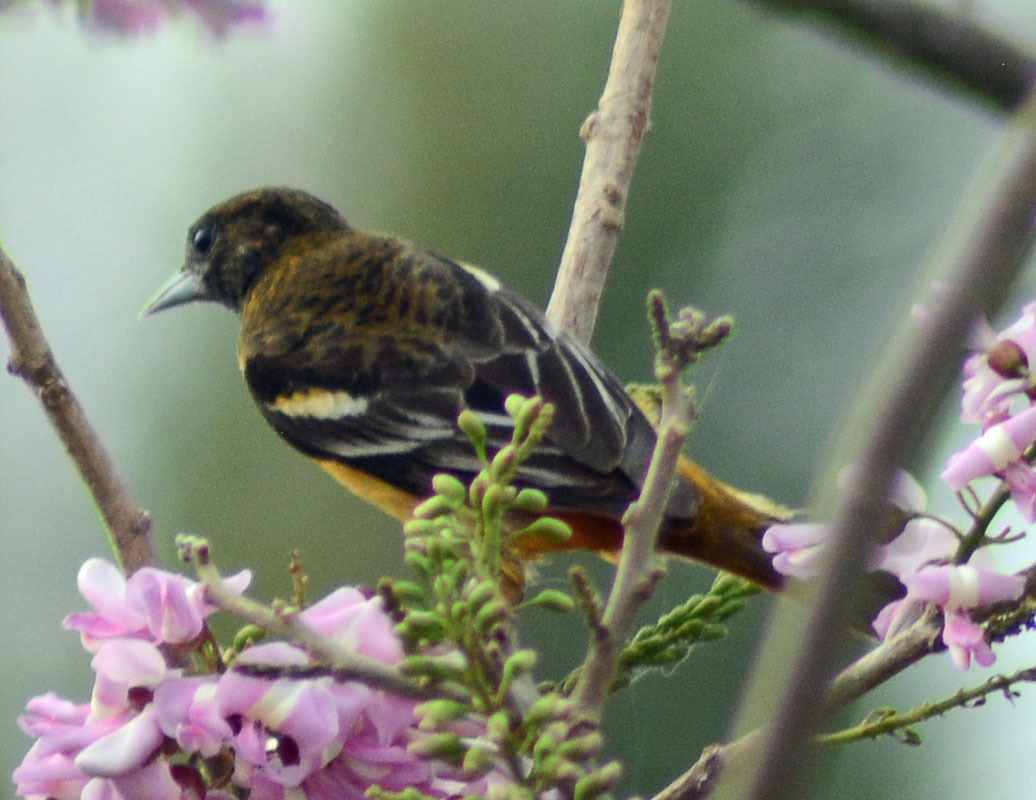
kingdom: Animalia
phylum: Chordata
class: Aves
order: Passeriformes
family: Icteridae
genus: Icterus
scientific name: Icterus galbula
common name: Baltimore oriole
